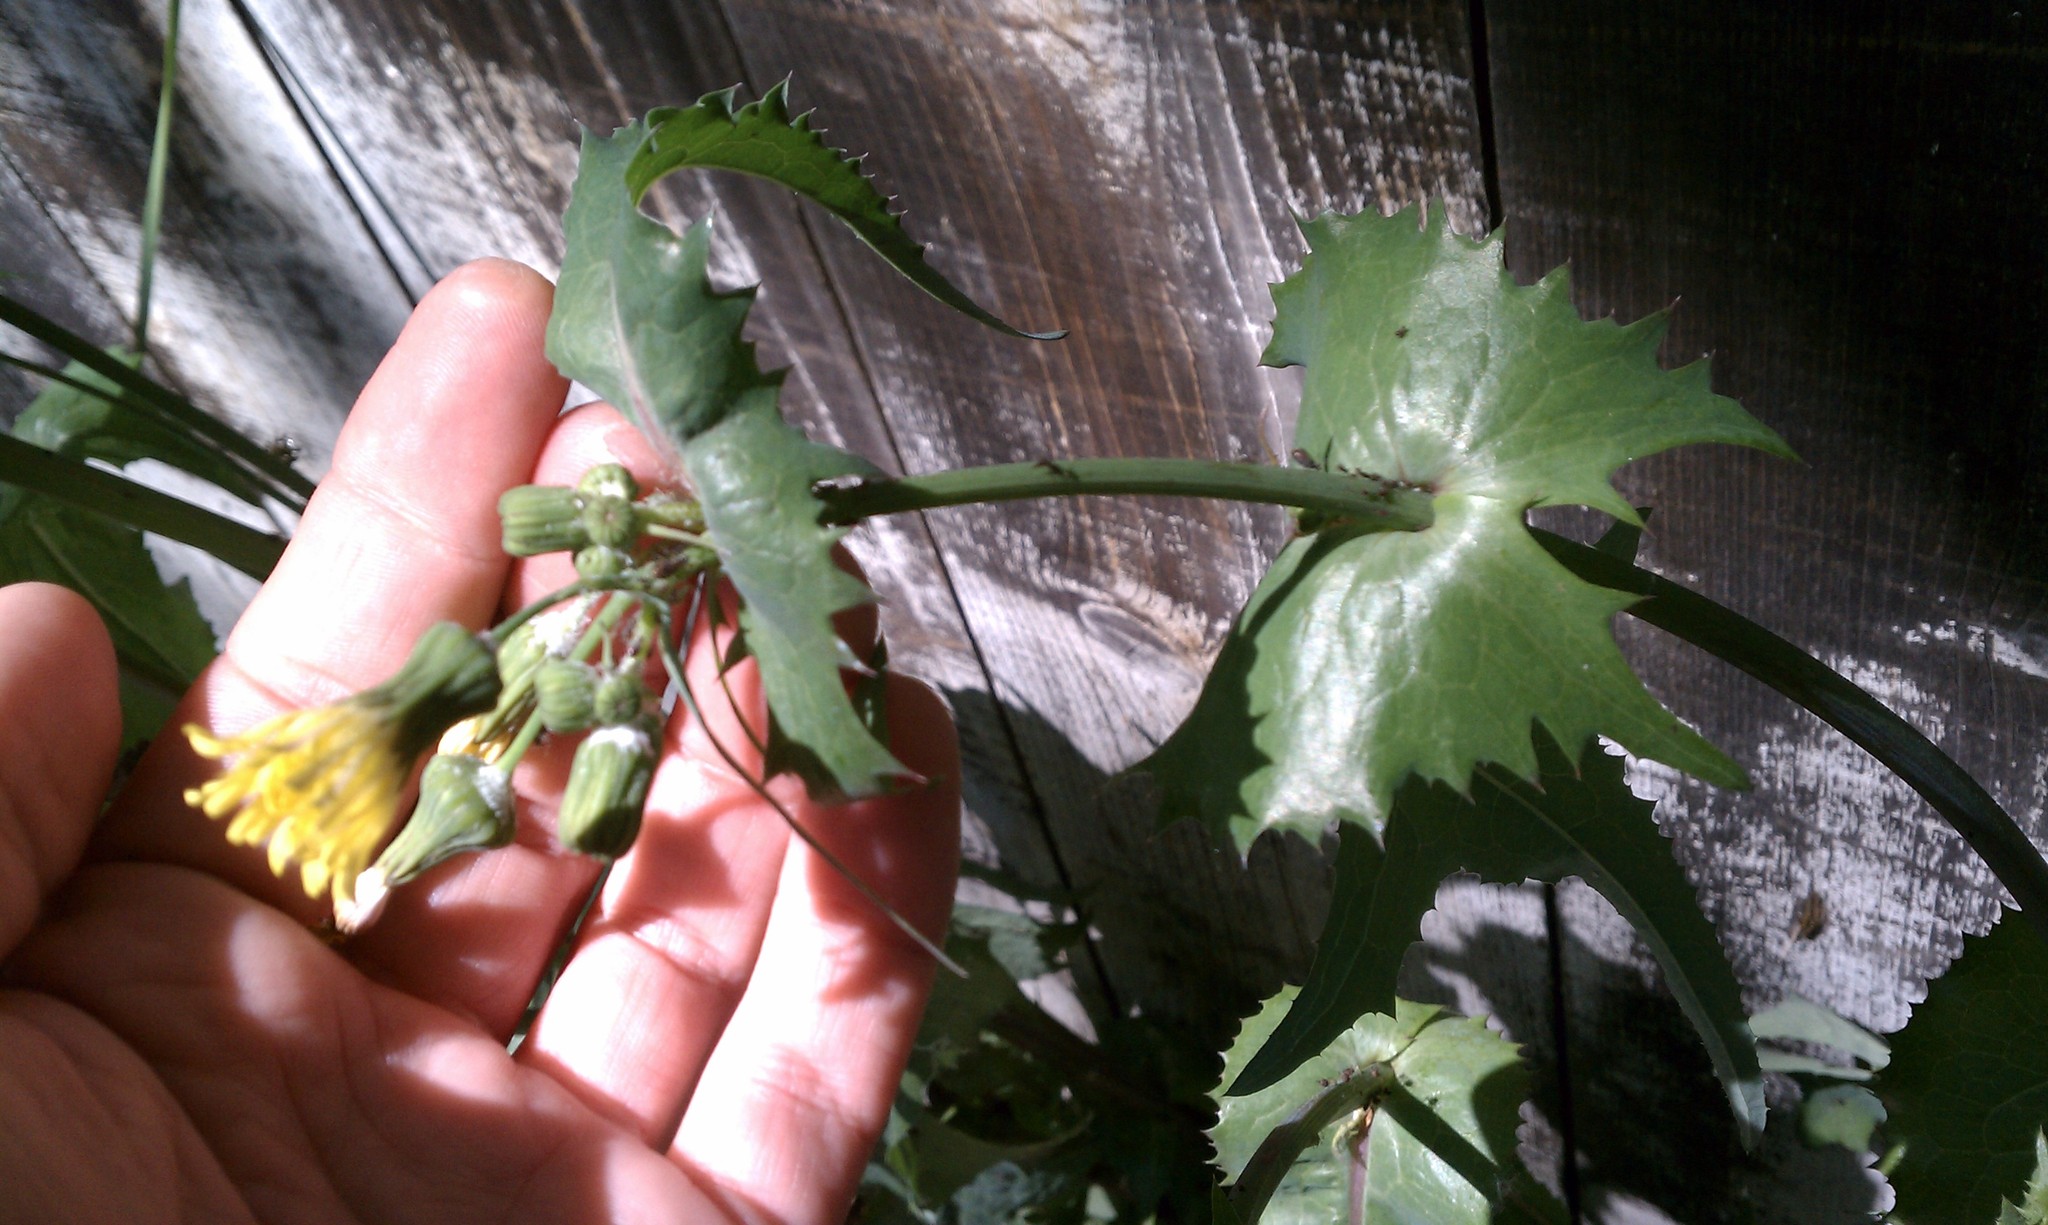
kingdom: Plantae
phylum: Tracheophyta
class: Magnoliopsida
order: Asterales
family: Asteraceae
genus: Sonchus
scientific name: Sonchus oleraceus
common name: Common sowthistle
